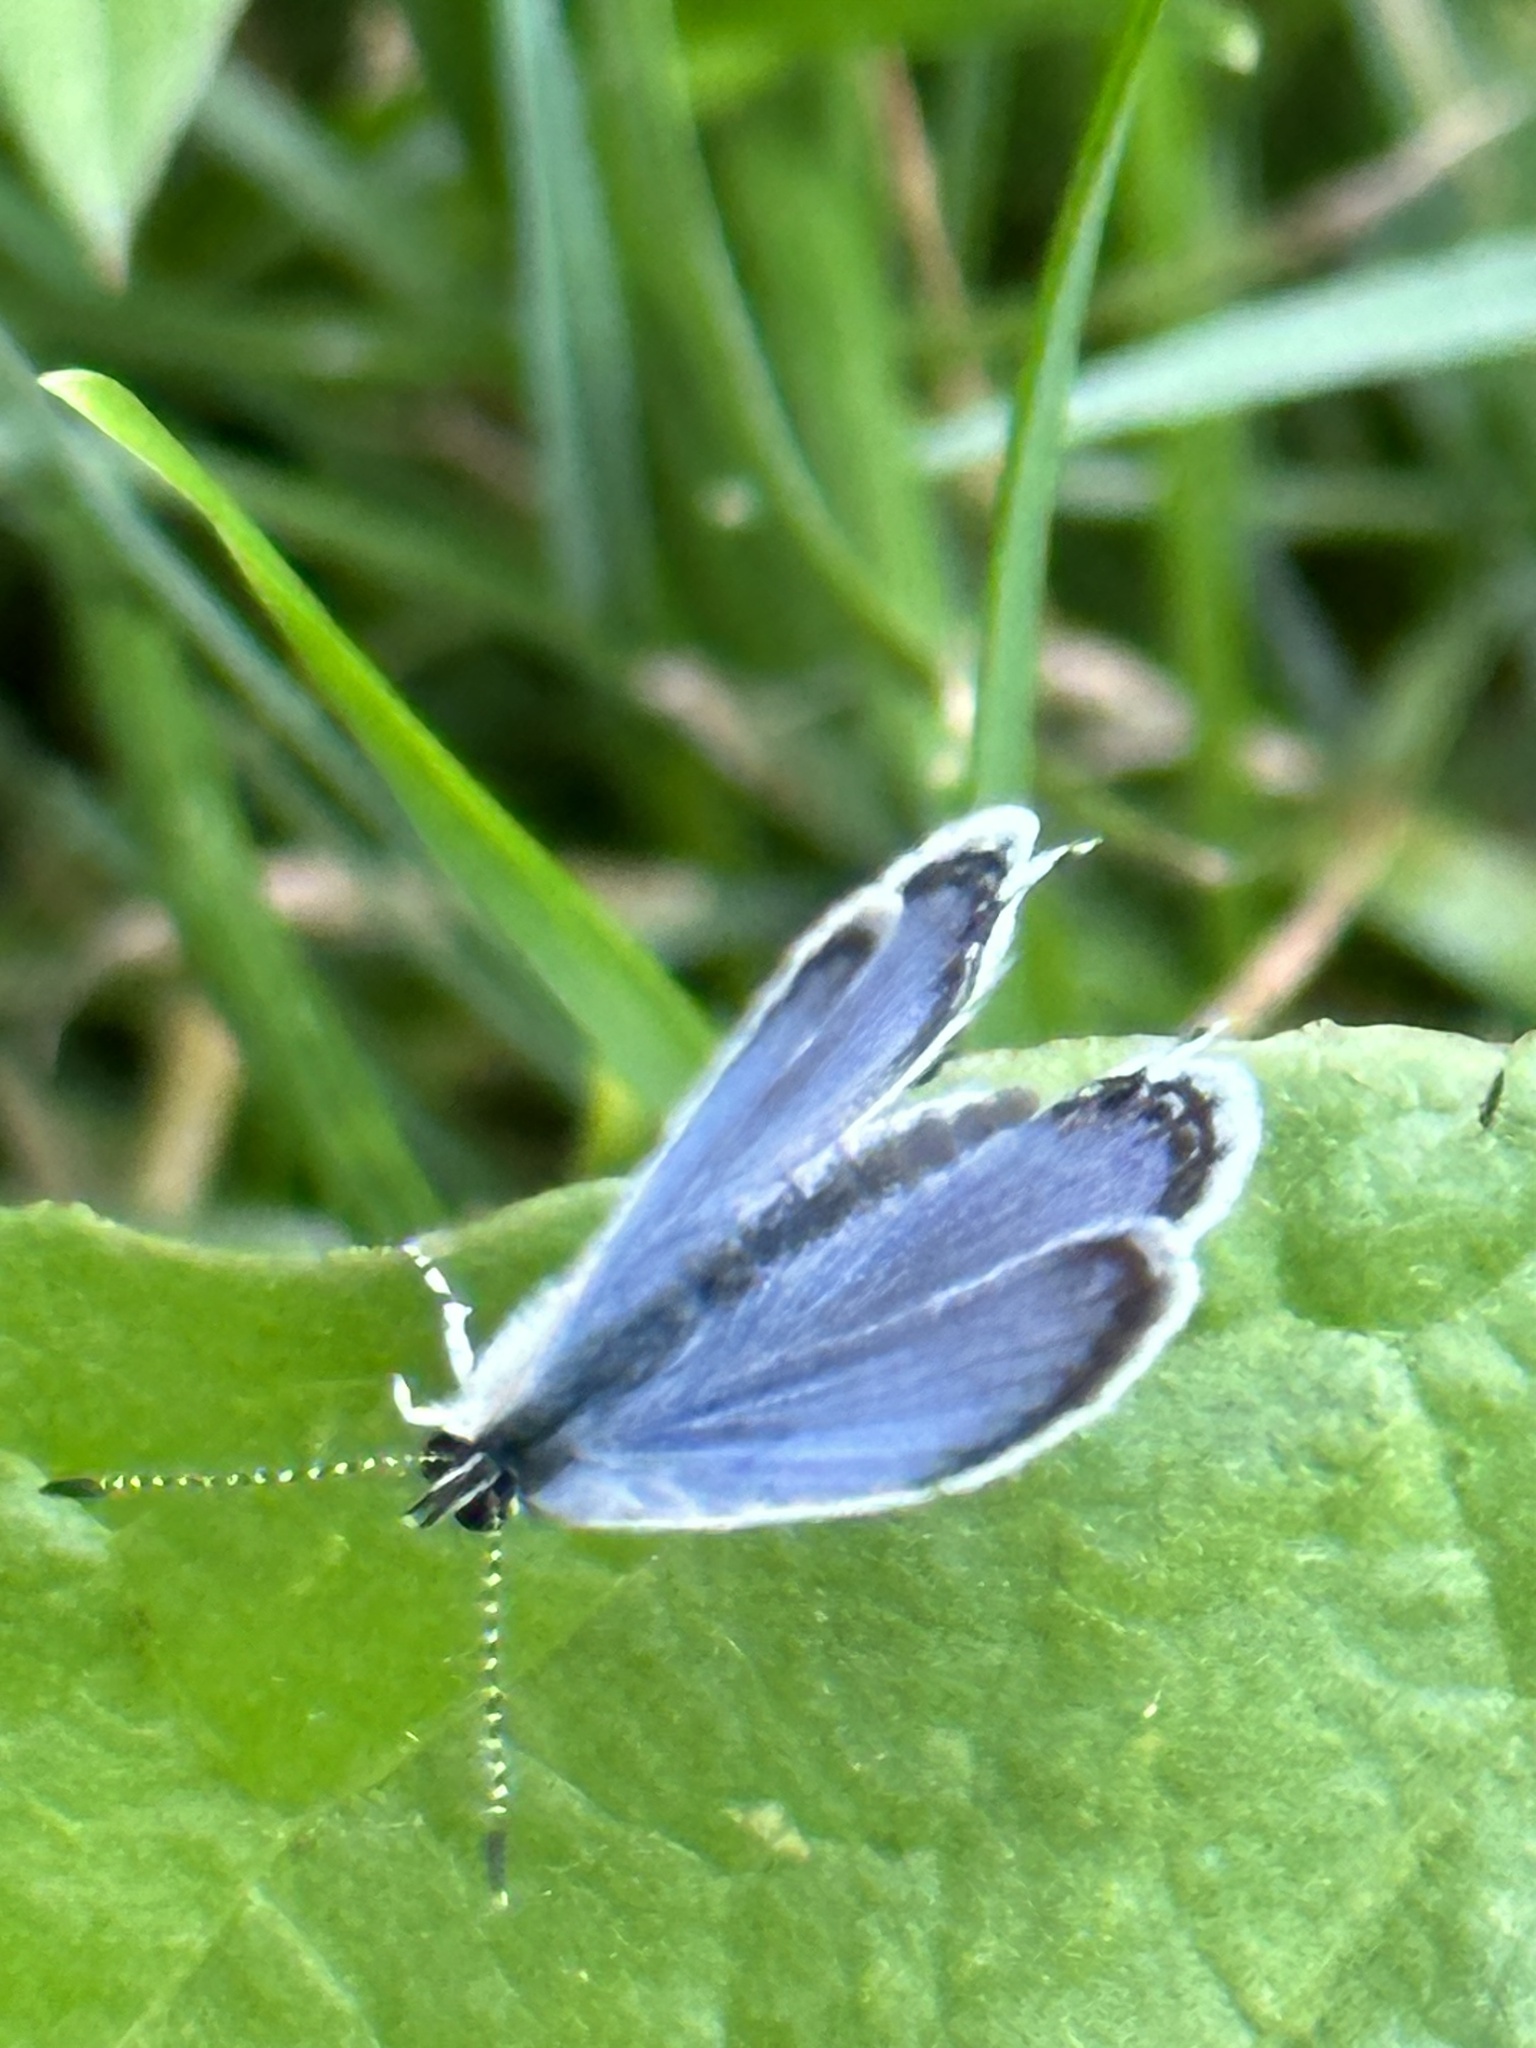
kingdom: Animalia
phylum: Arthropoda
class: Insecta
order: Lepidoptera
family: Lycaenidae
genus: Elkalyce
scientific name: Elkalyce comyntas
